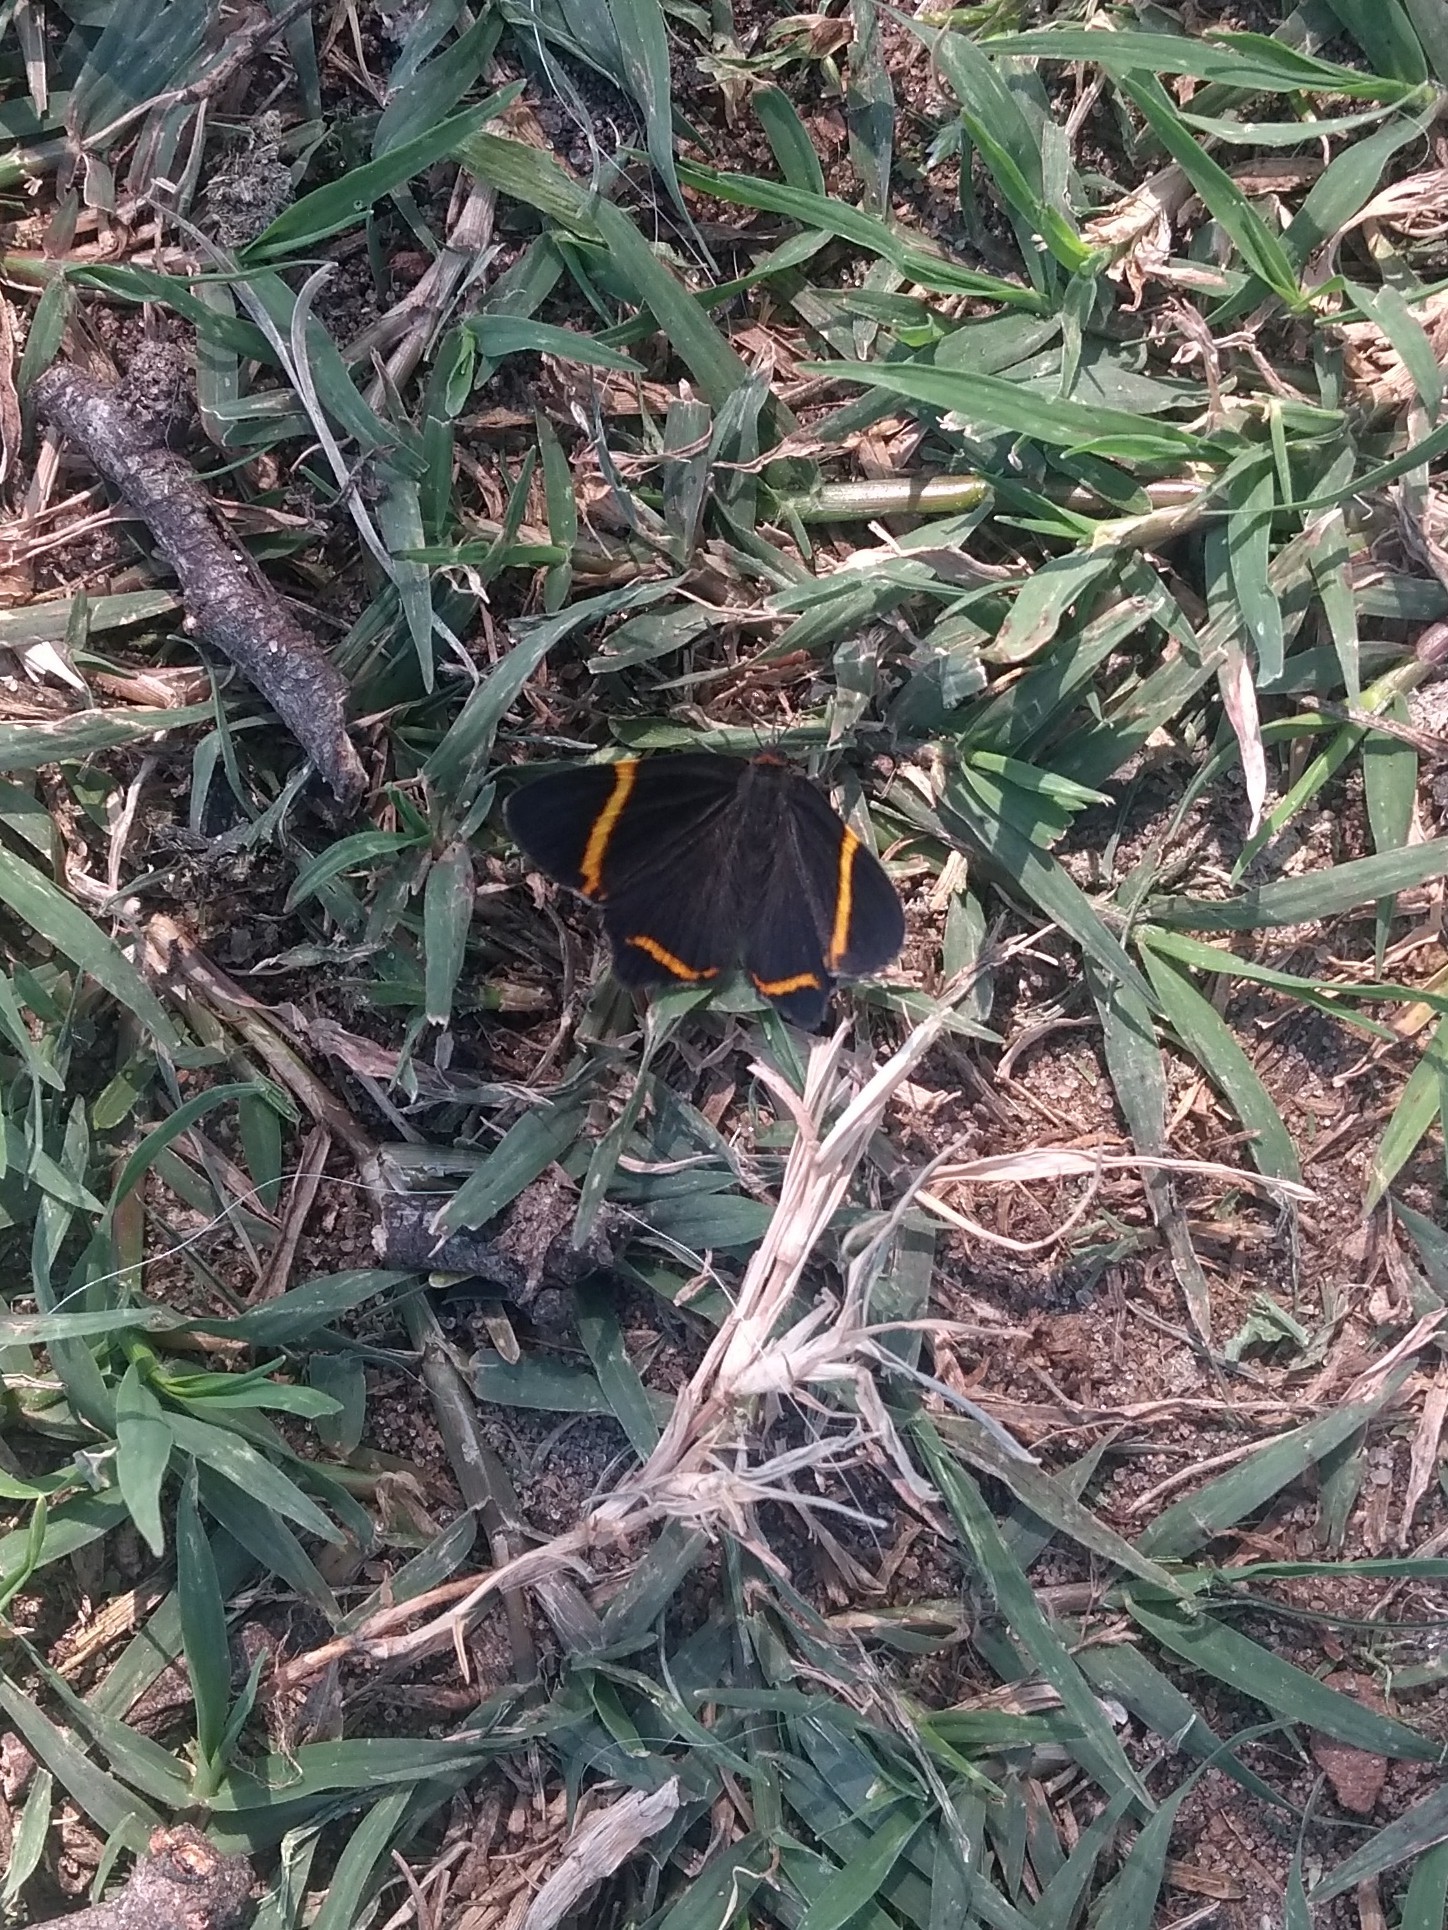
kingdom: Animalia
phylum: Arthropoda
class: Insecta
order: Lepidoptera
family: Riodinidae
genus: Riodina
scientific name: Riodina lysippoides
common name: Little dancer metalmark
